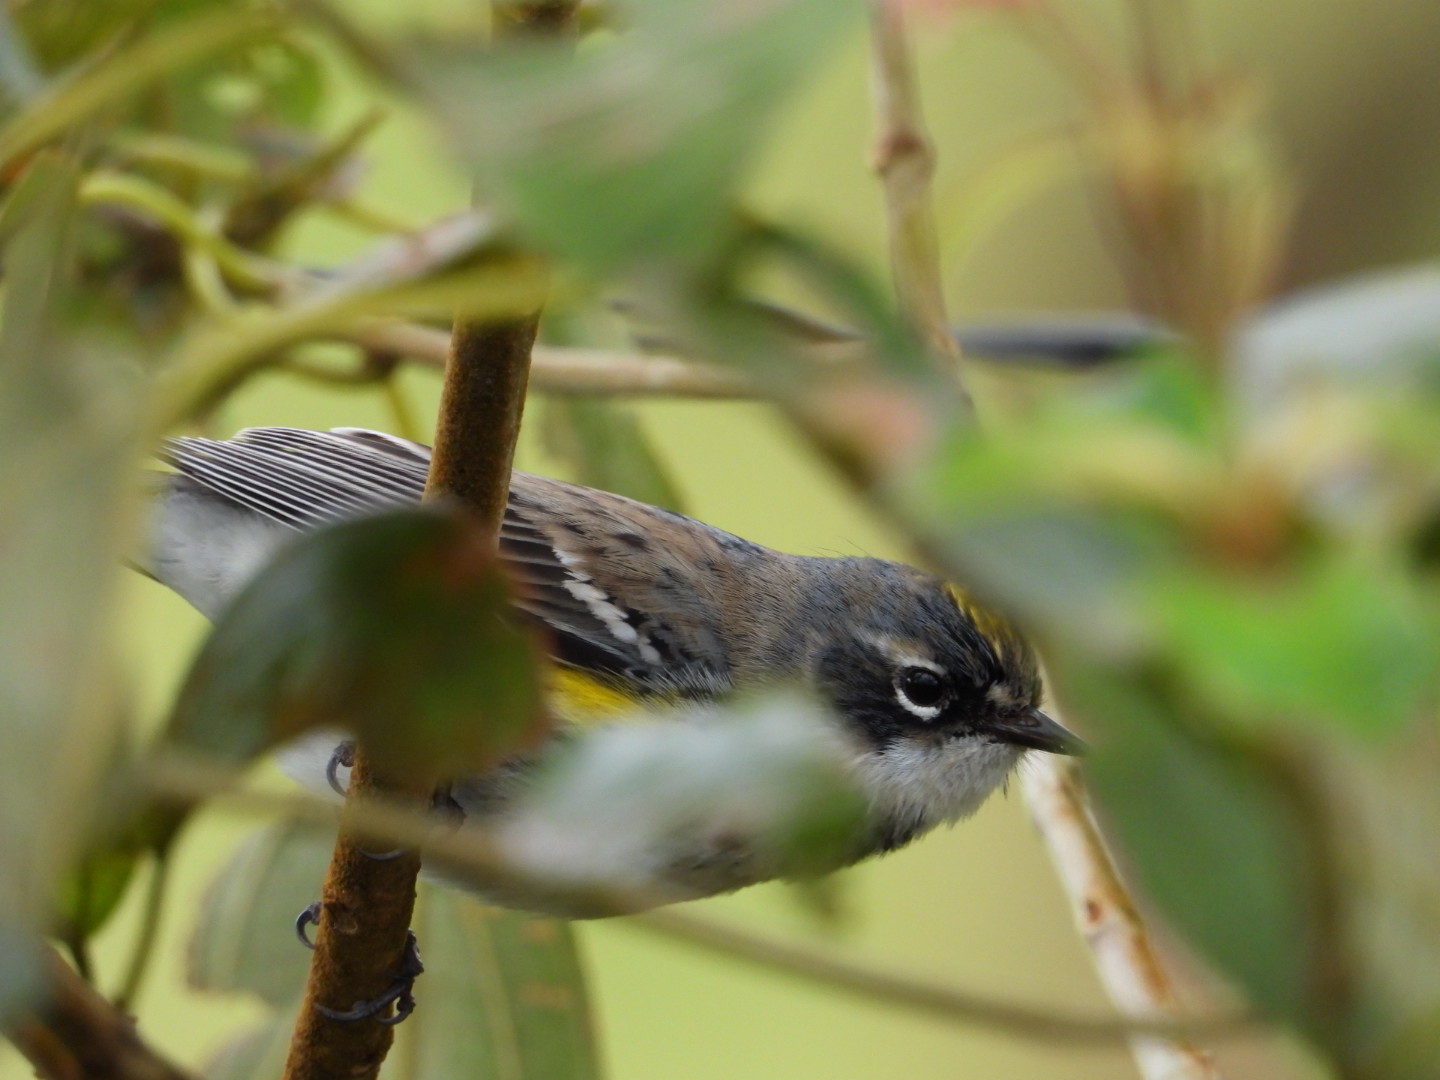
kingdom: Animalia
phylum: Chordata
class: Aves
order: Passeriformes
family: Parulidae
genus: Setophaga
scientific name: Setophaga coronata
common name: Myrtle warbler
